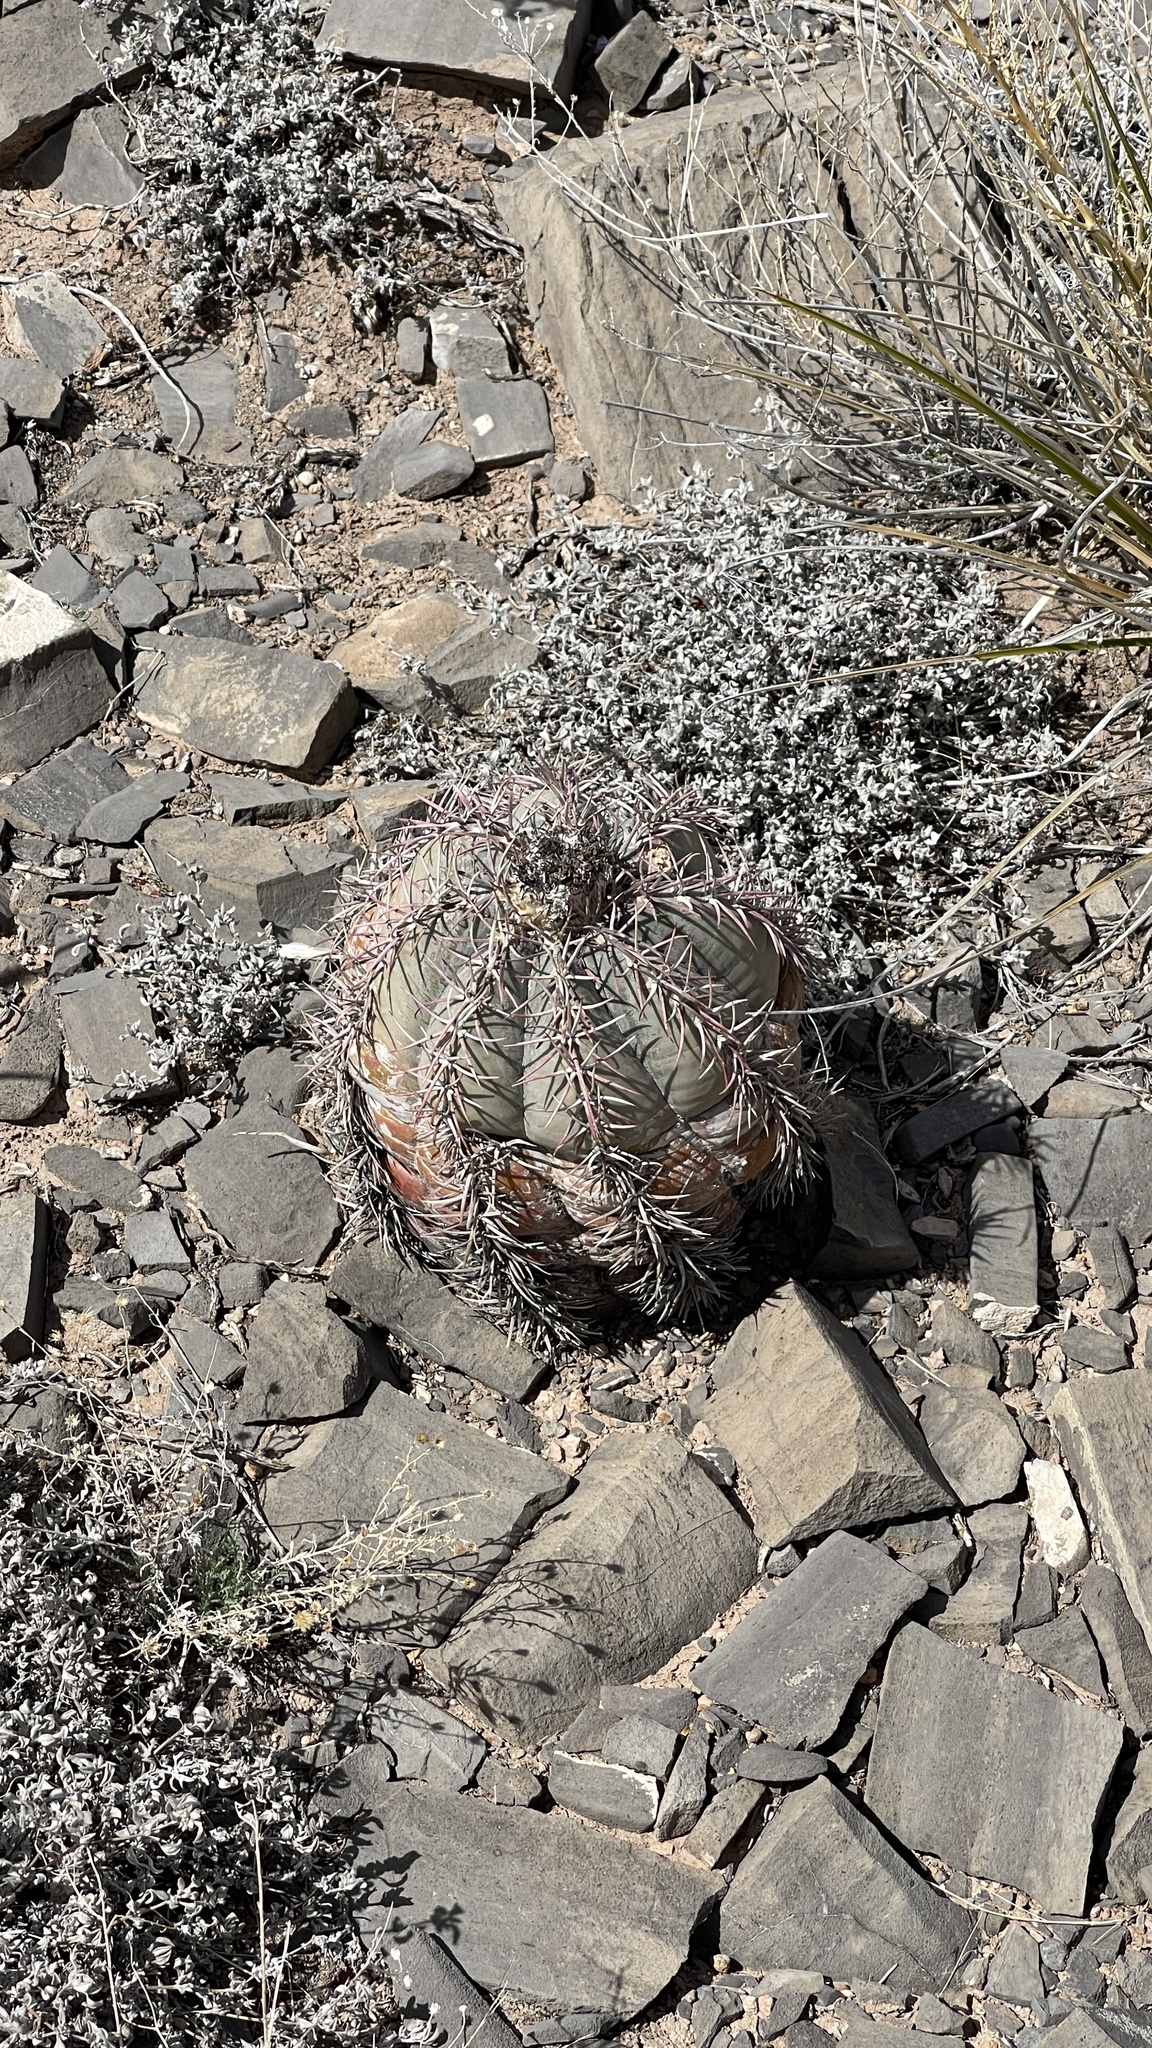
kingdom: Plantae
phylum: Tracheophyta
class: Magnoliopsida
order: Caryophyllales
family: Cactaceae
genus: Echinocactus
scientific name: Echinocactus horizonthalonius
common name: Devilshead
